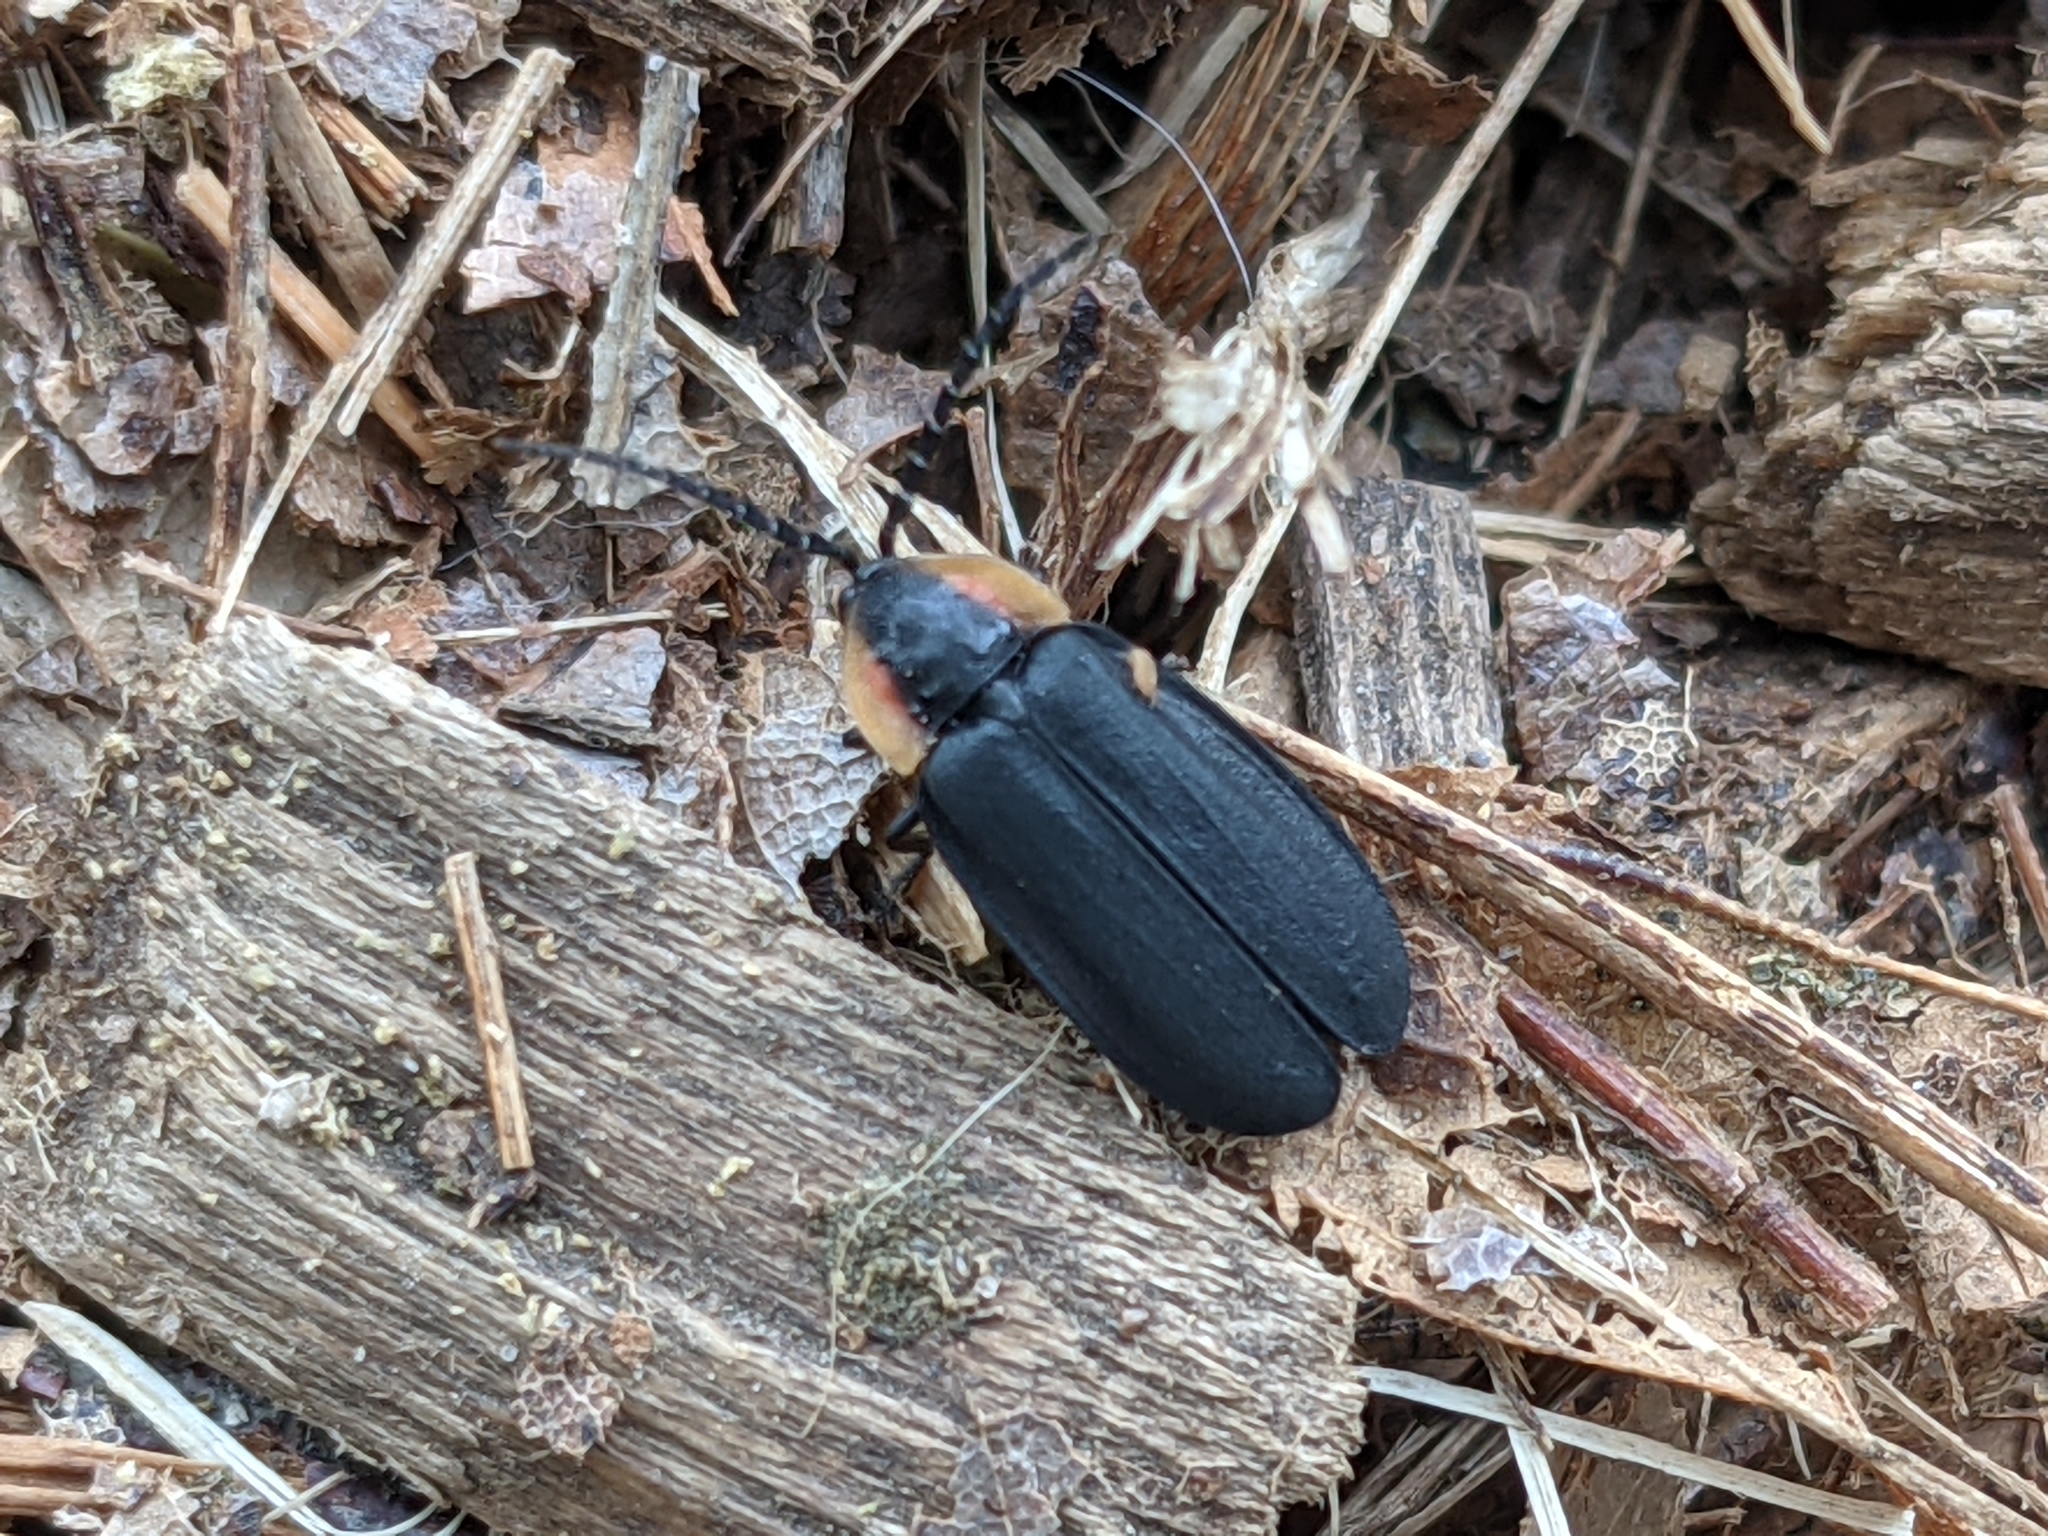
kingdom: Animalia
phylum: Arthropoda
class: Insecta
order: Coleoptera
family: Lampyridae
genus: Lucidota
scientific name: Lucidota atra
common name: Black firefly
